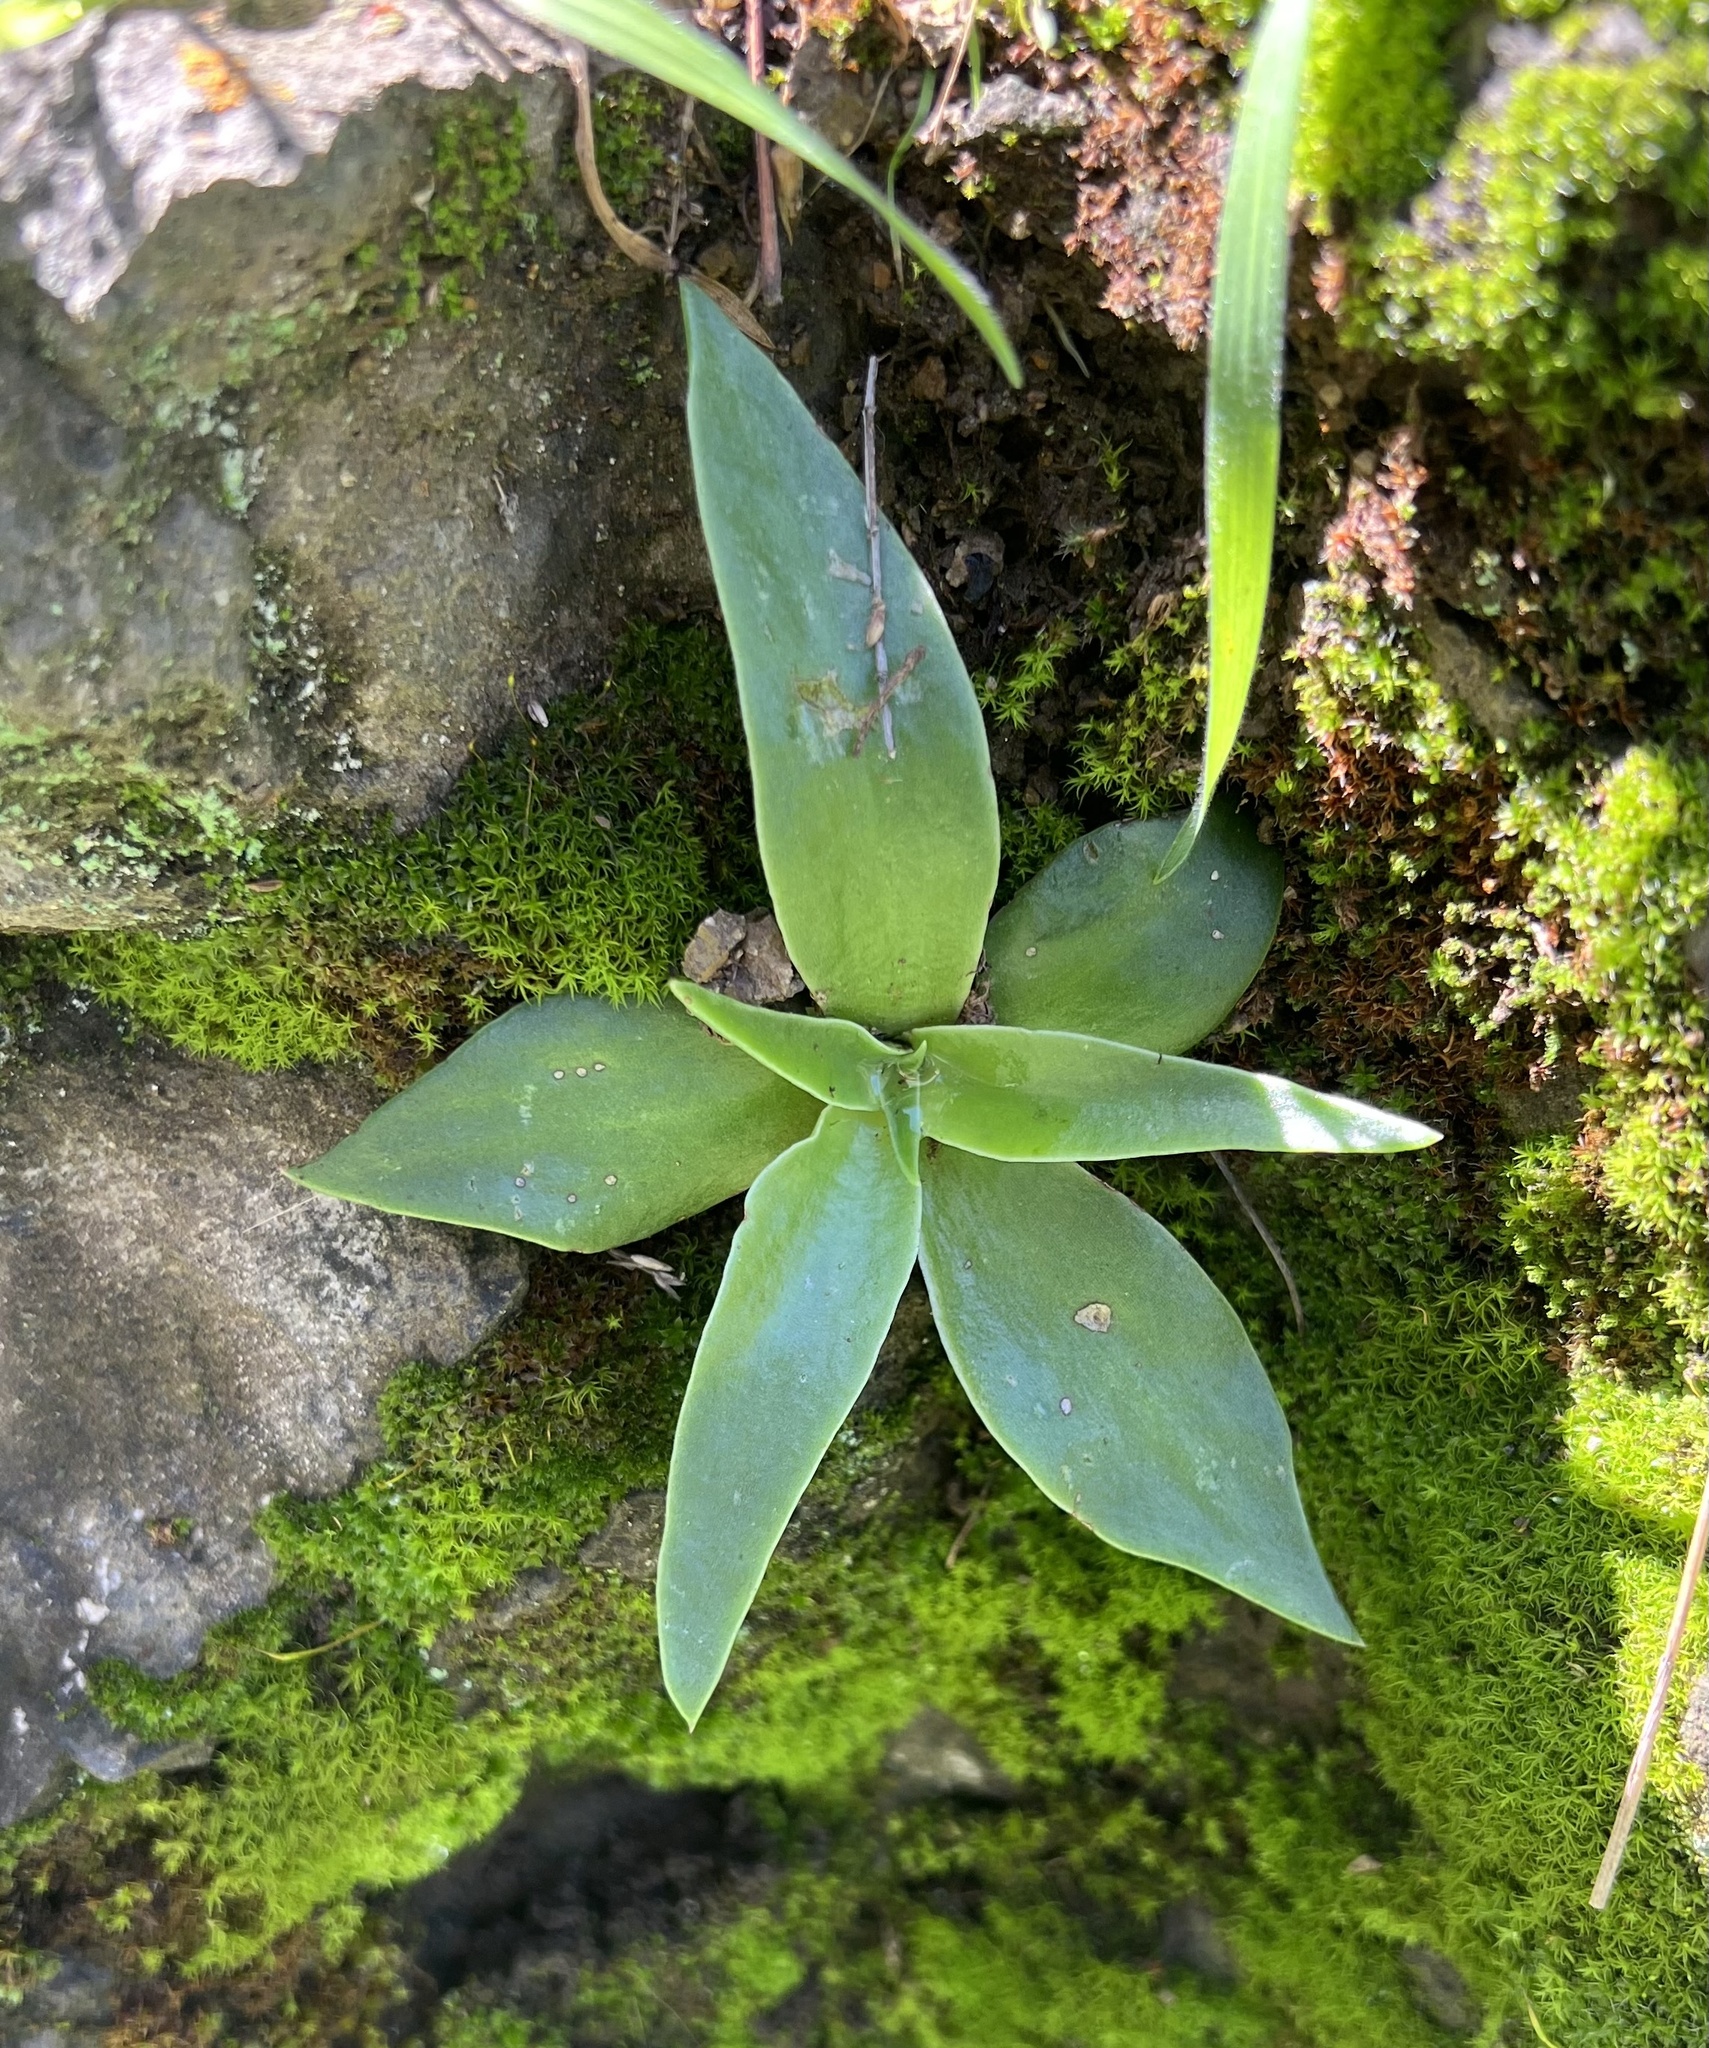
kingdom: Plantae
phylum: Tracheophyta
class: Magnoliopsida
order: Saxifragales
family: Crassulaceae
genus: Dudleya
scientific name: Dudleya lanceolata
